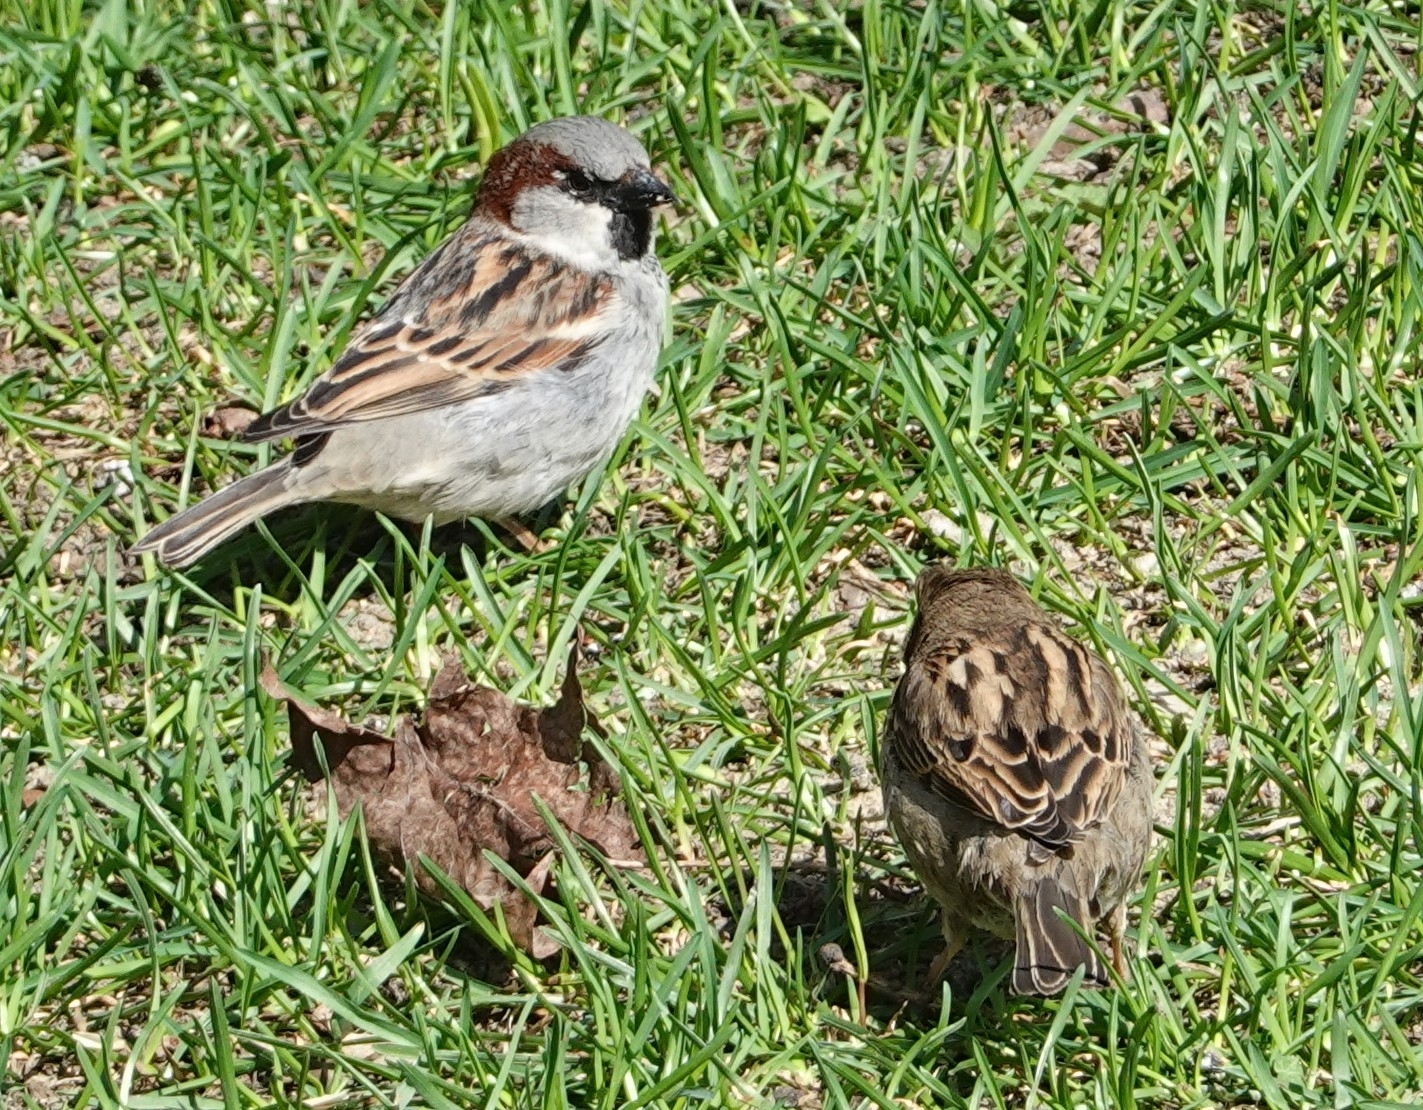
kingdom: Animalia
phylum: Chordata
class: Aves
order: Passeriformes
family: Passeridae
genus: Passer
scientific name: Passer domesticus
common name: House sparrow
